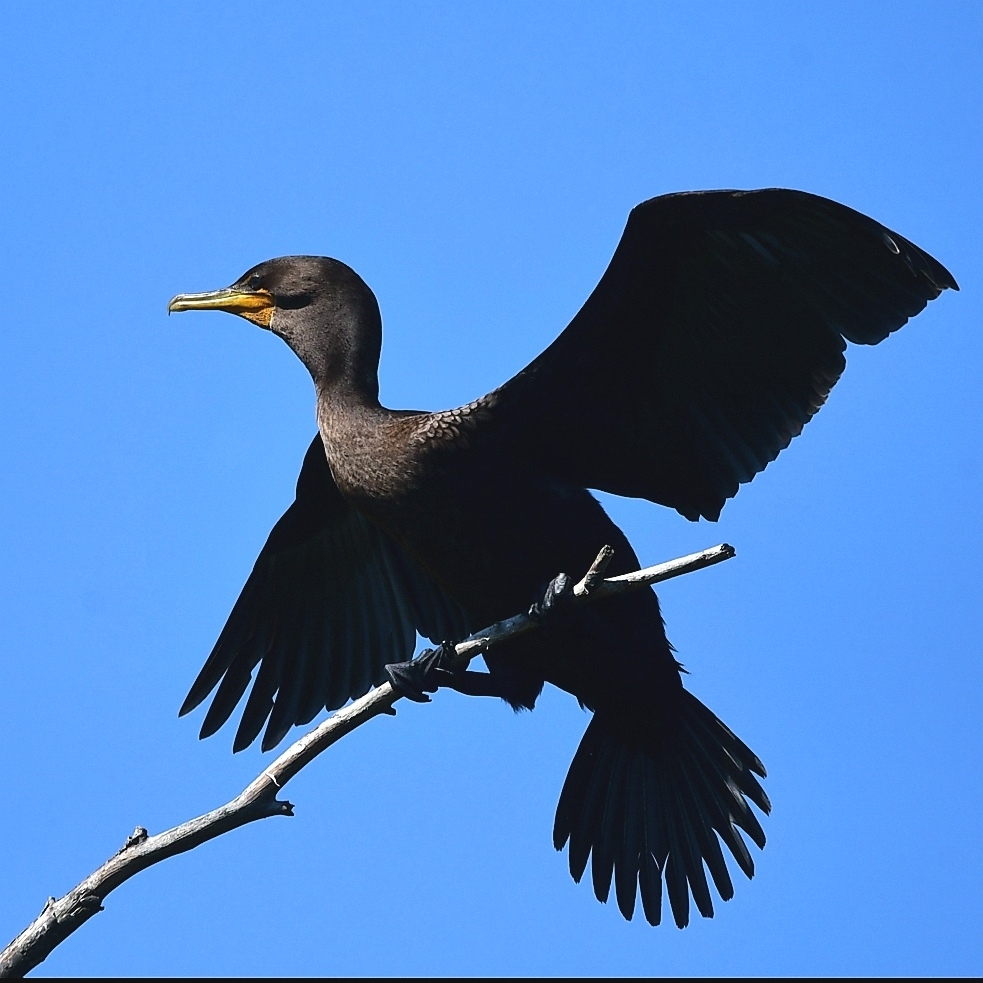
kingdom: Animalia
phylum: Chordata
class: Aves
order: Suliformes
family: Phalacrocoracidae
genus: Phalacrocorax
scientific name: Phalacrocorax auritus
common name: Double-crested cormorant
